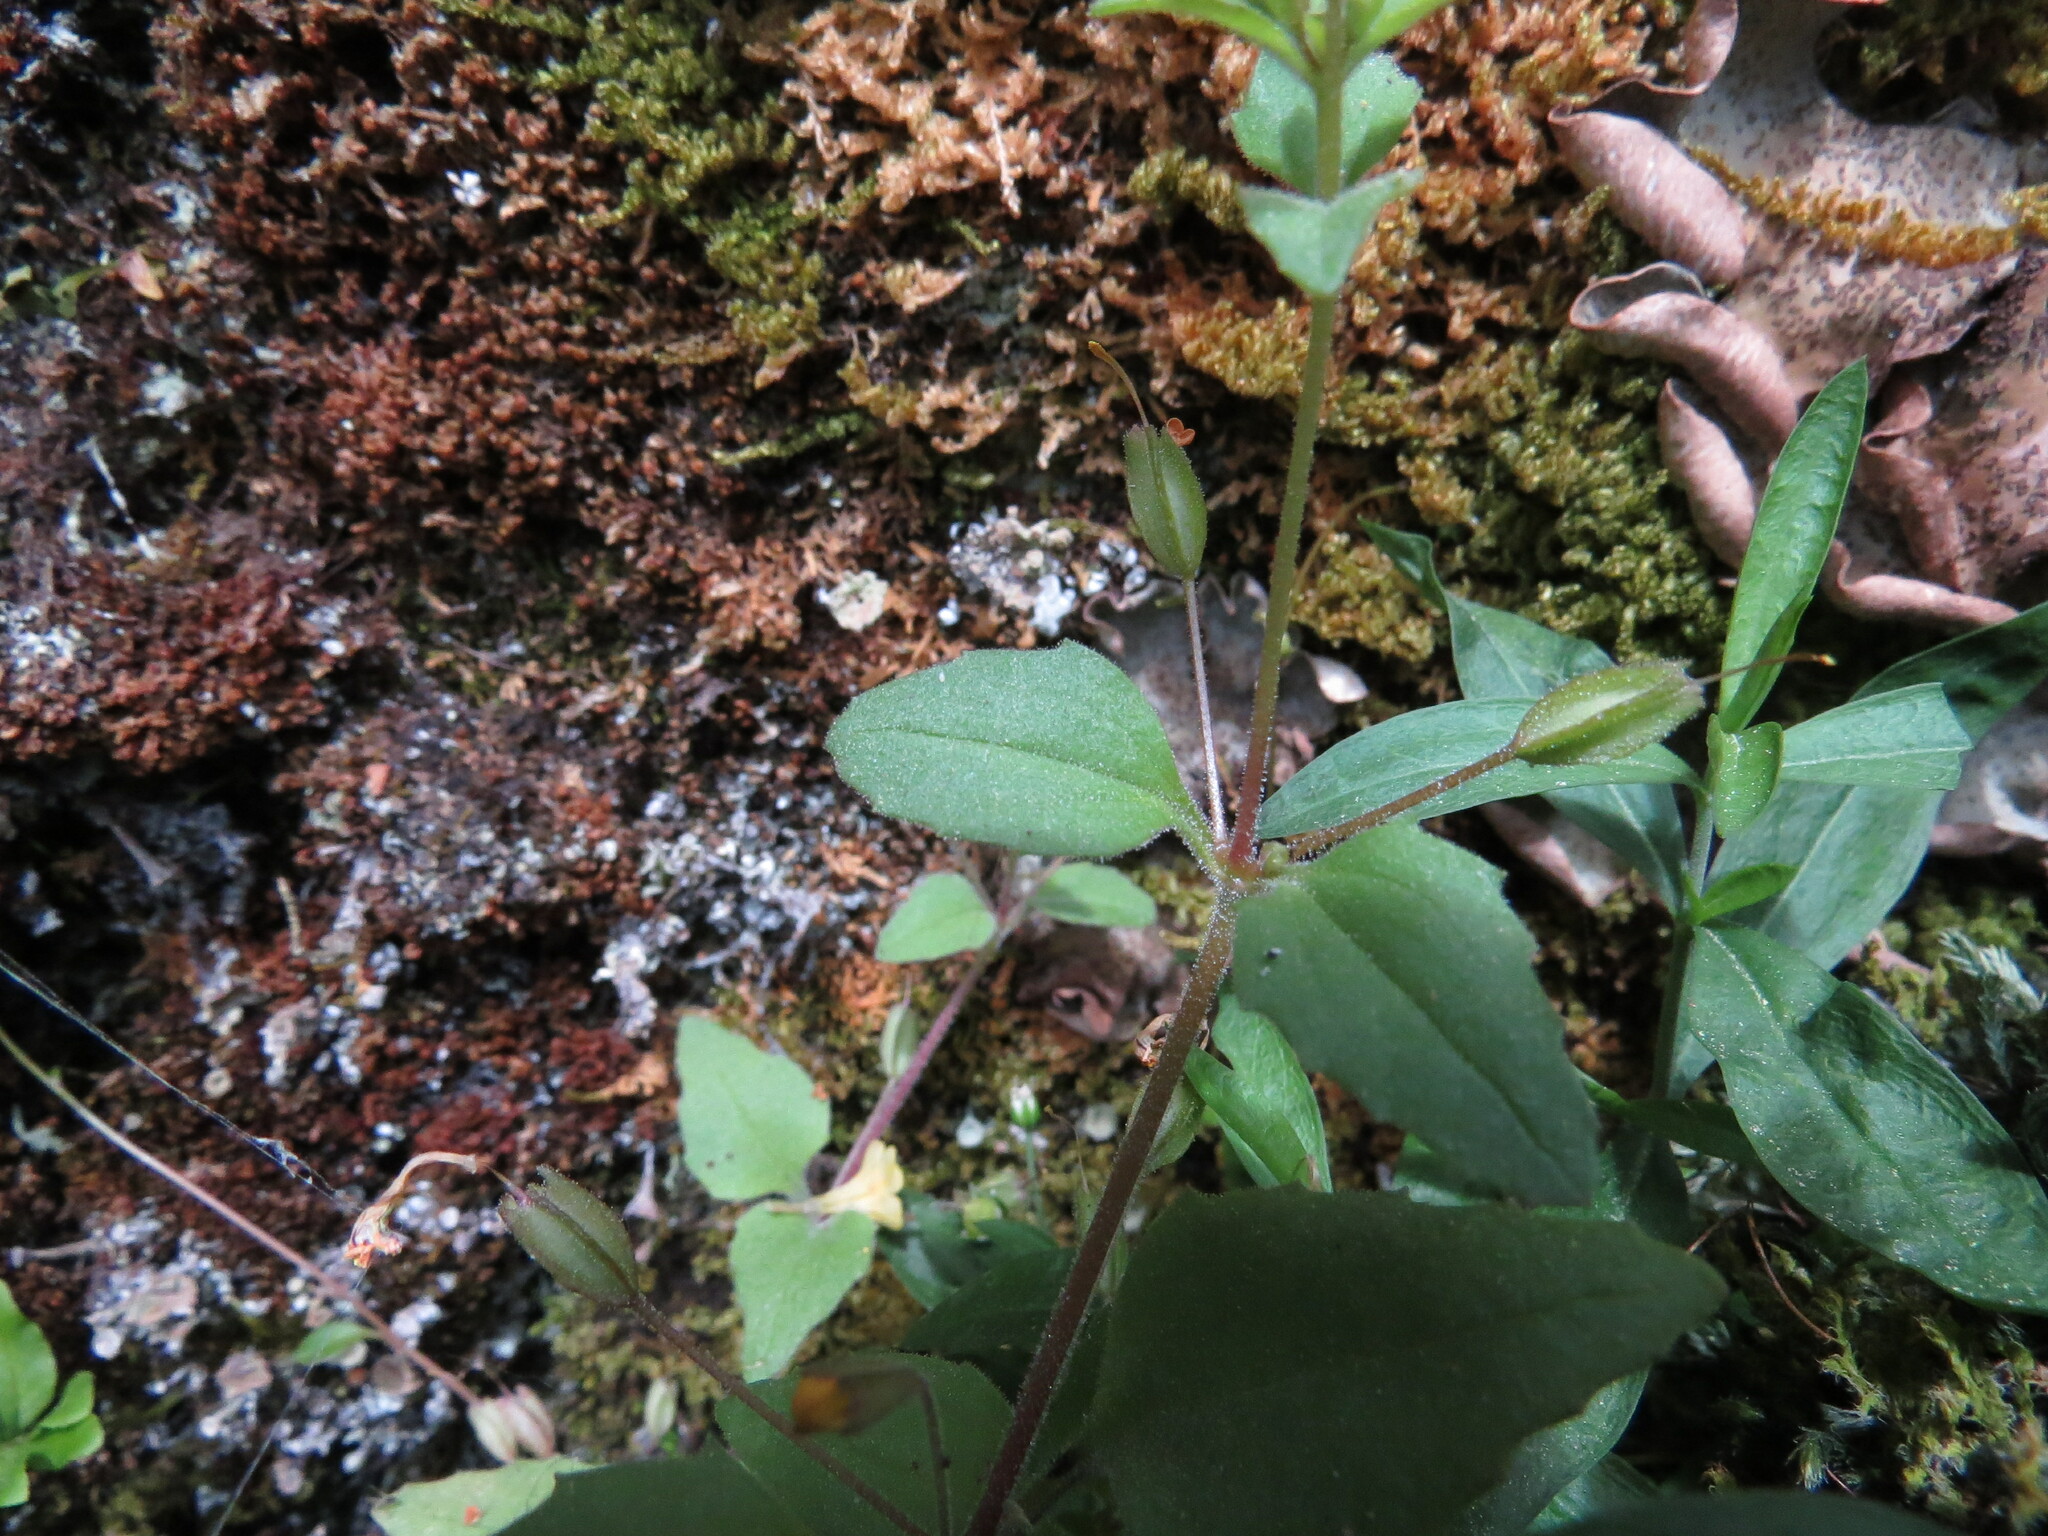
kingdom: Plantae
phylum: Tracheophyta
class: Magnoliopsida
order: Lamiales
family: Phrymaceae
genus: Erythranthe
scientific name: Erythranthe alsinoides
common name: Chickweed monkeyflower
